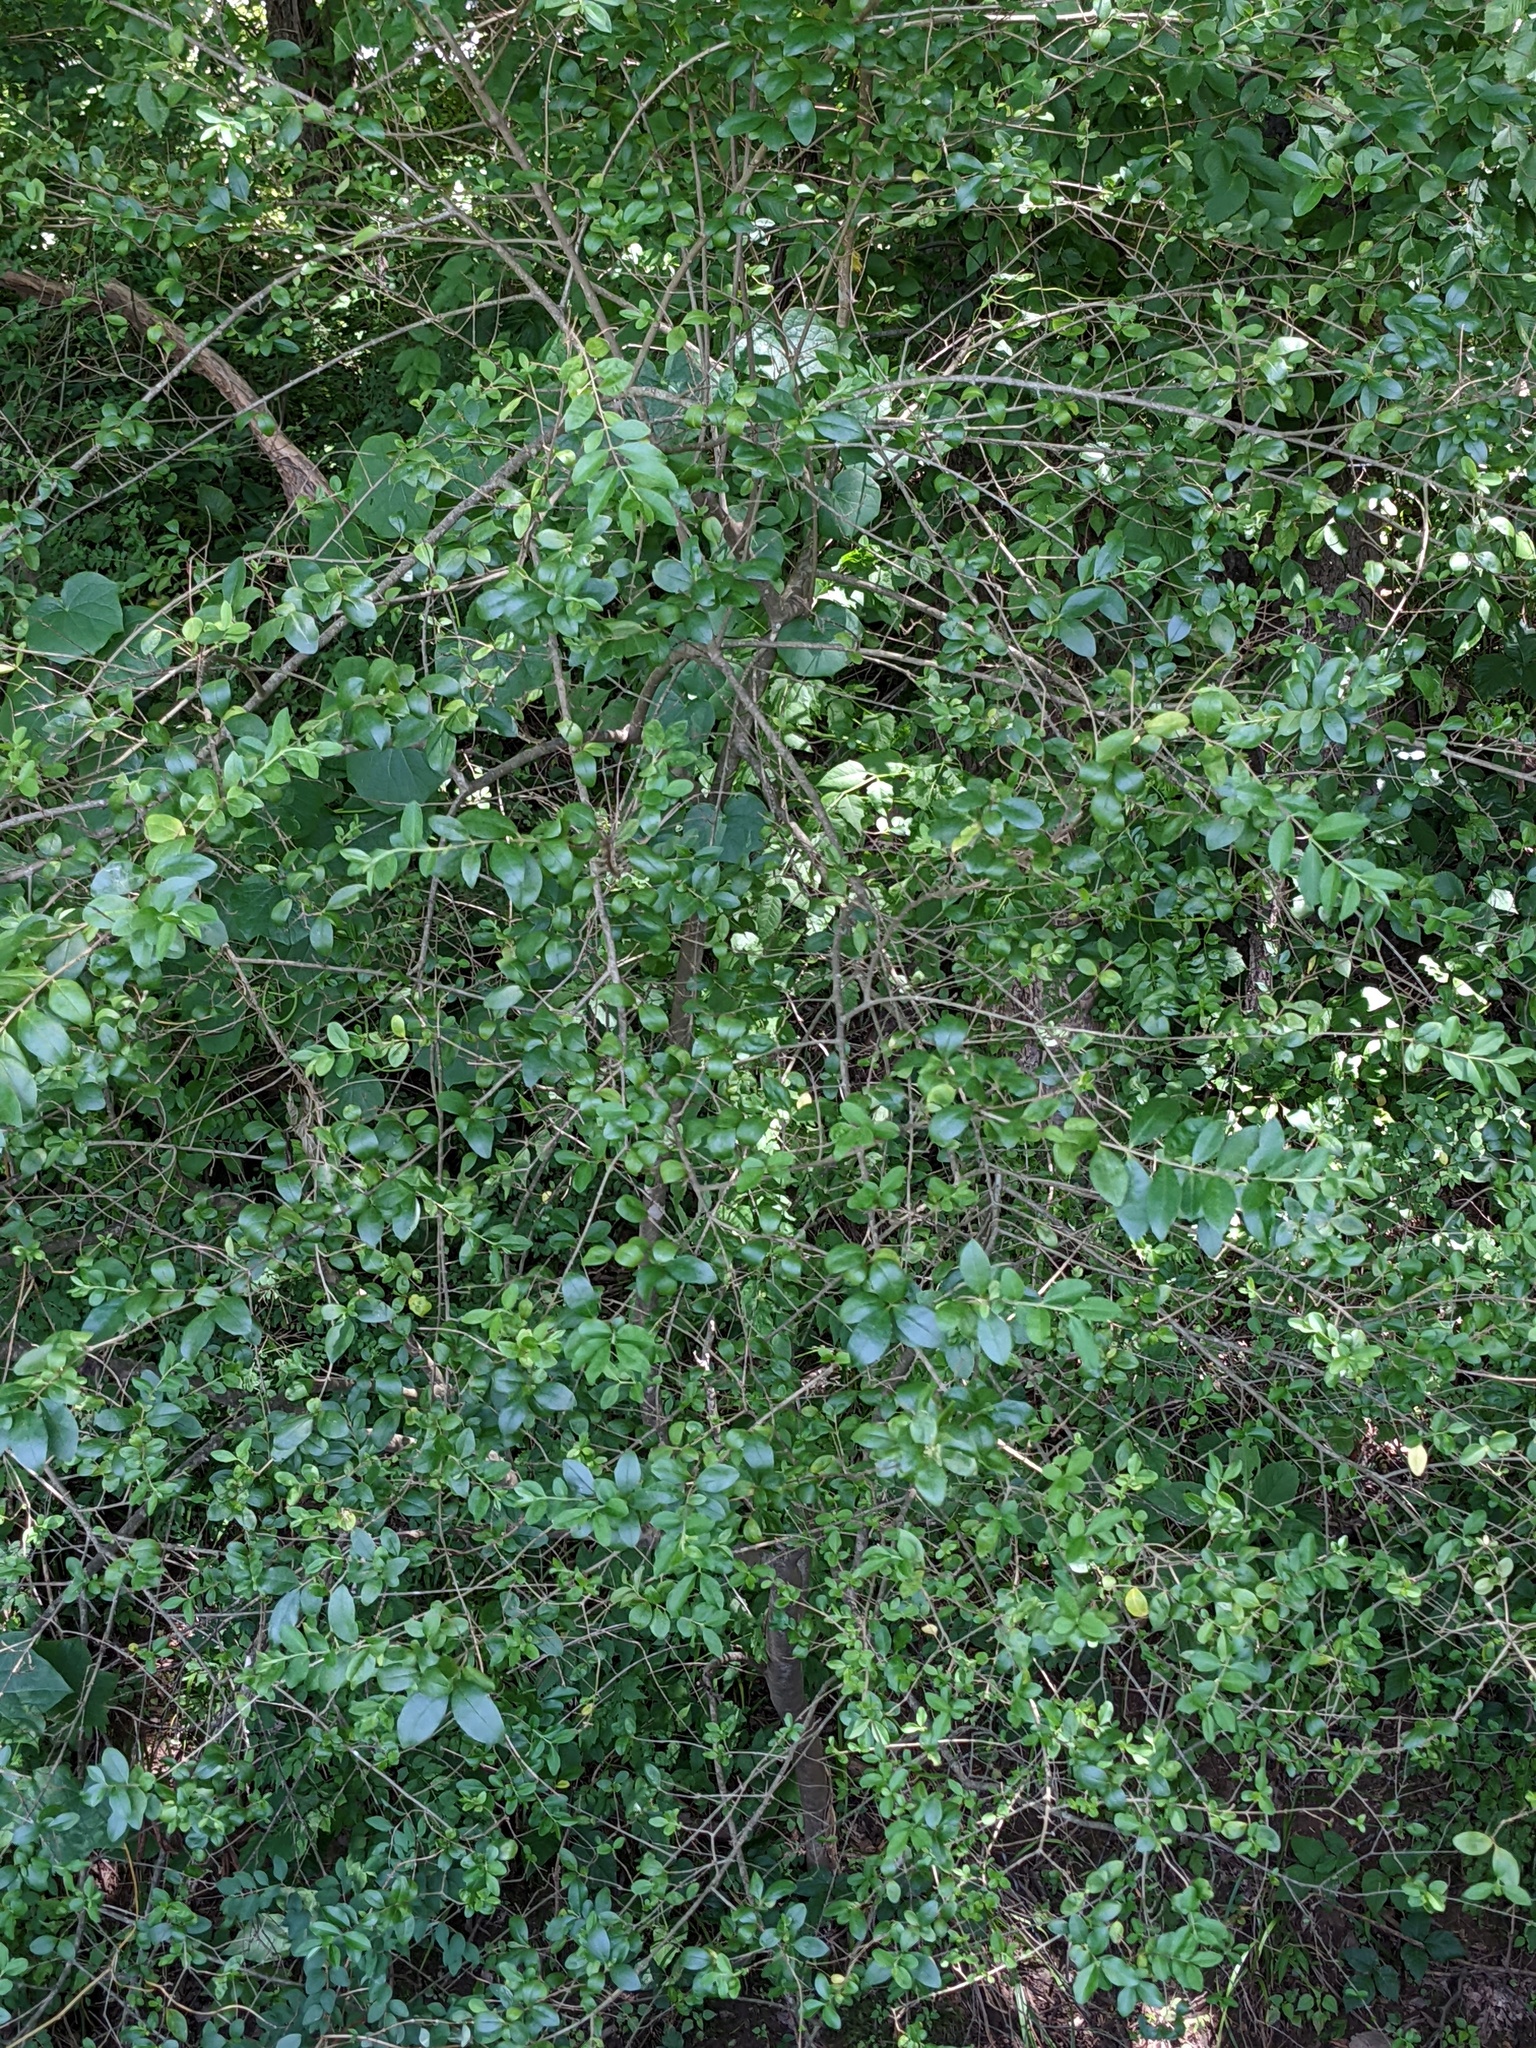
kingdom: Plantae
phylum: Tracheophyta
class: Magnoliopsida
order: Lamiales
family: Oleaceae
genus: Ligustrum
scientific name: Ligustrum
